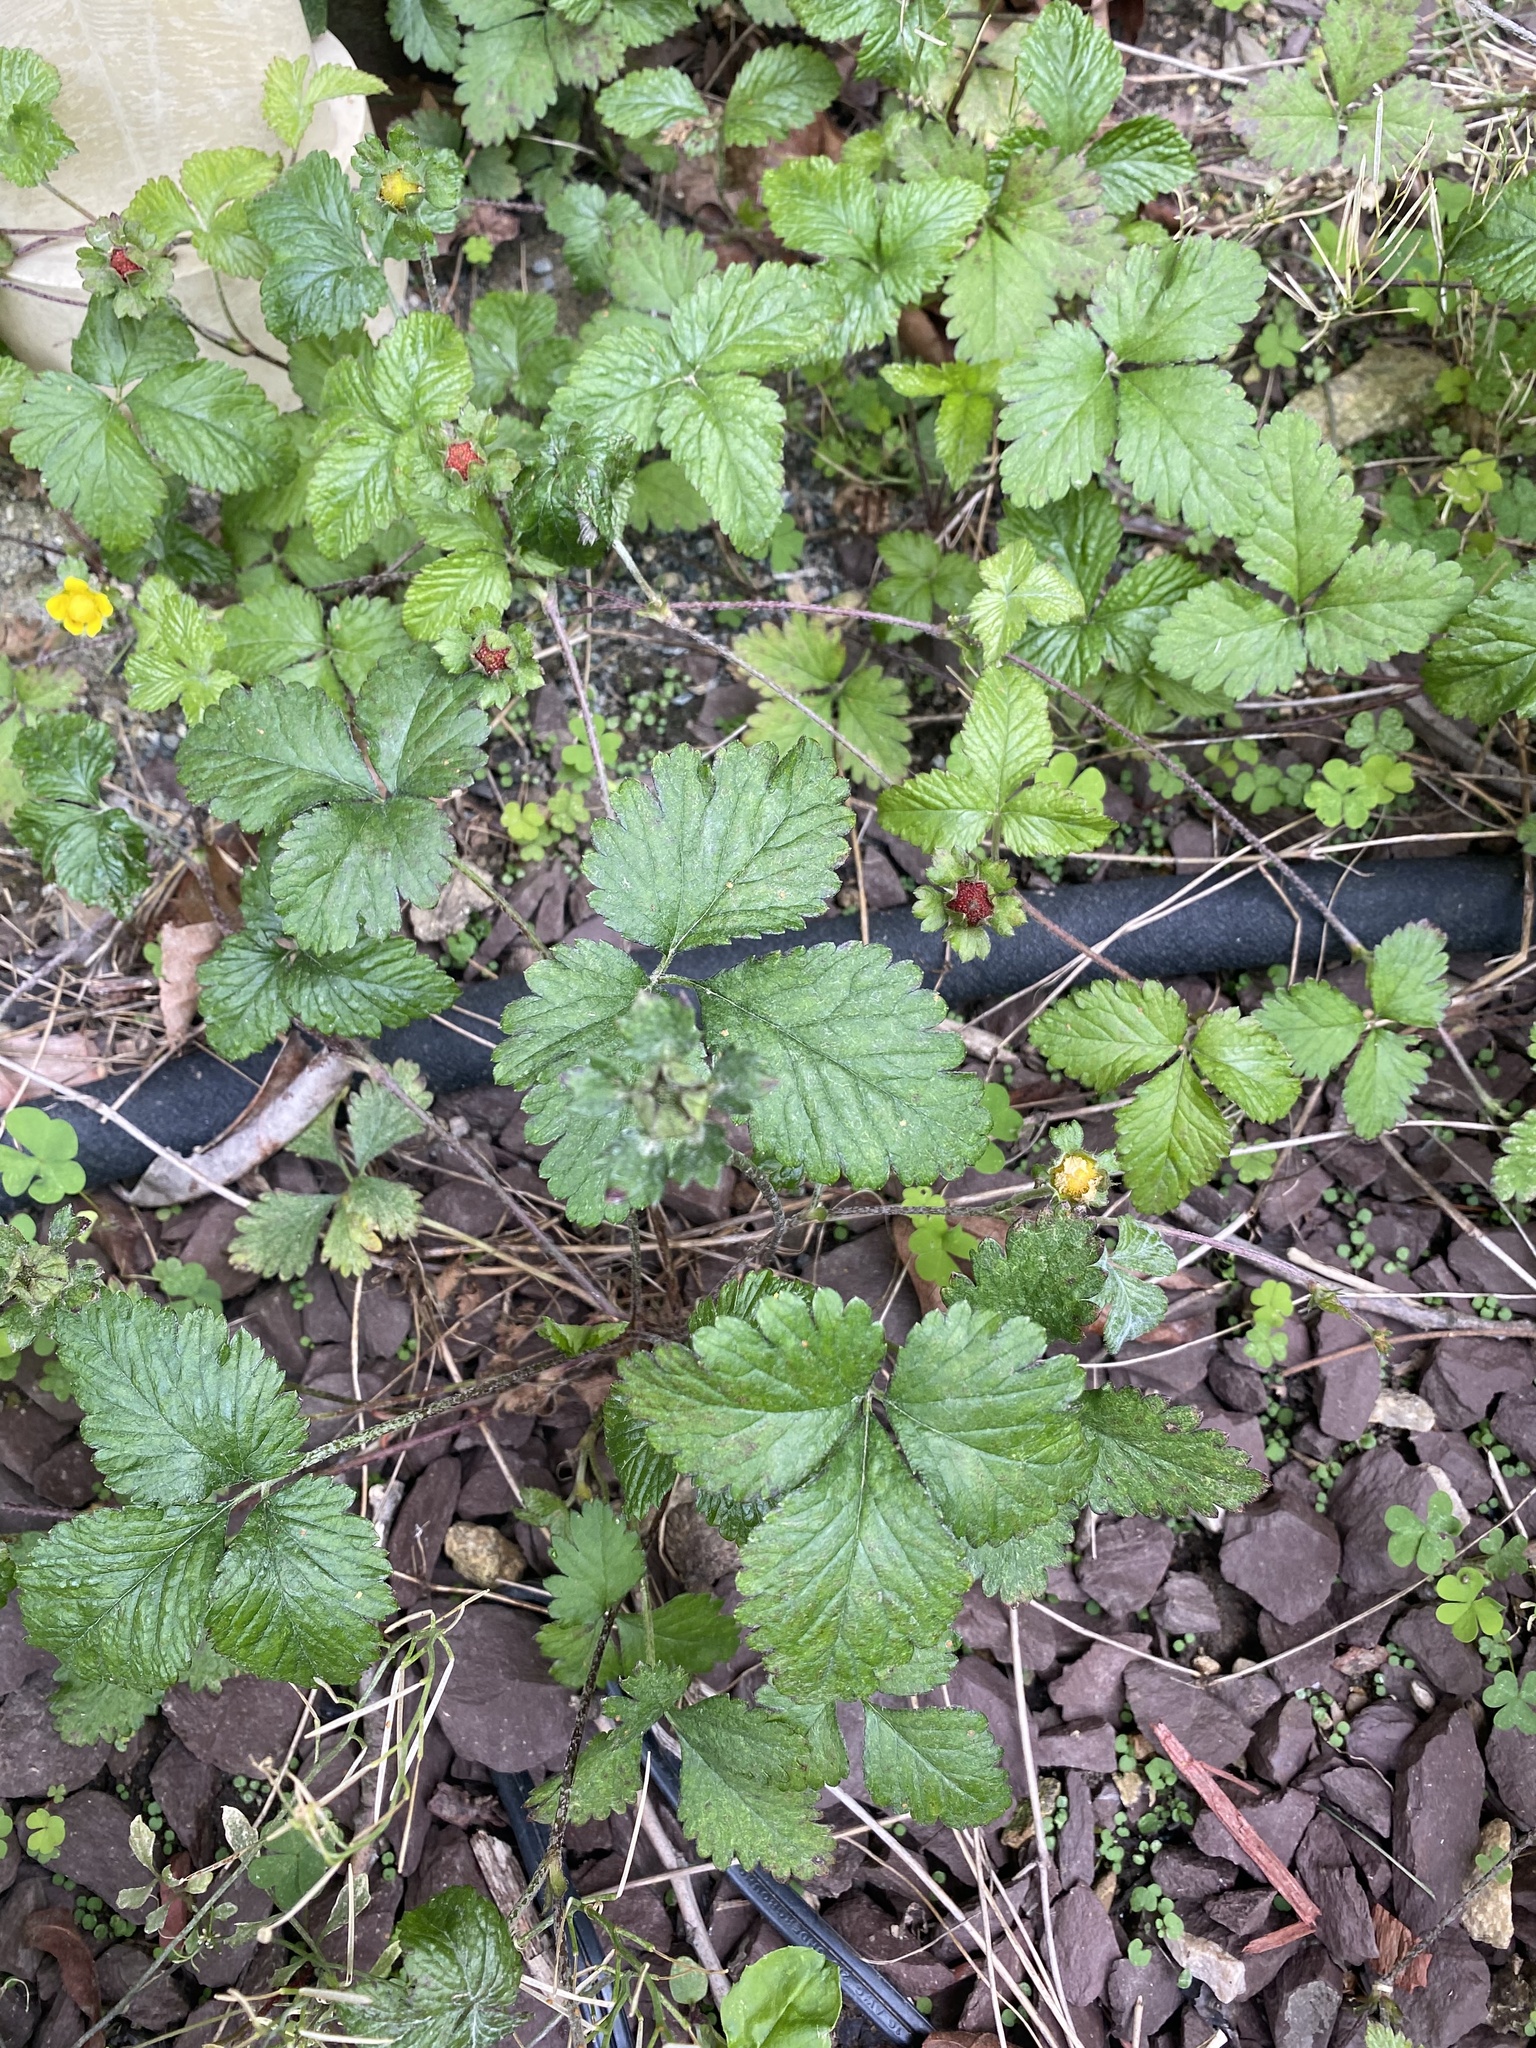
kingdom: Plantae
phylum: Tracheophyta
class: Magnoliopsida
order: Rosales
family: Rosaceae
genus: Potentilla
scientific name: Potentilla indica
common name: Yellow-flowered strawberry
